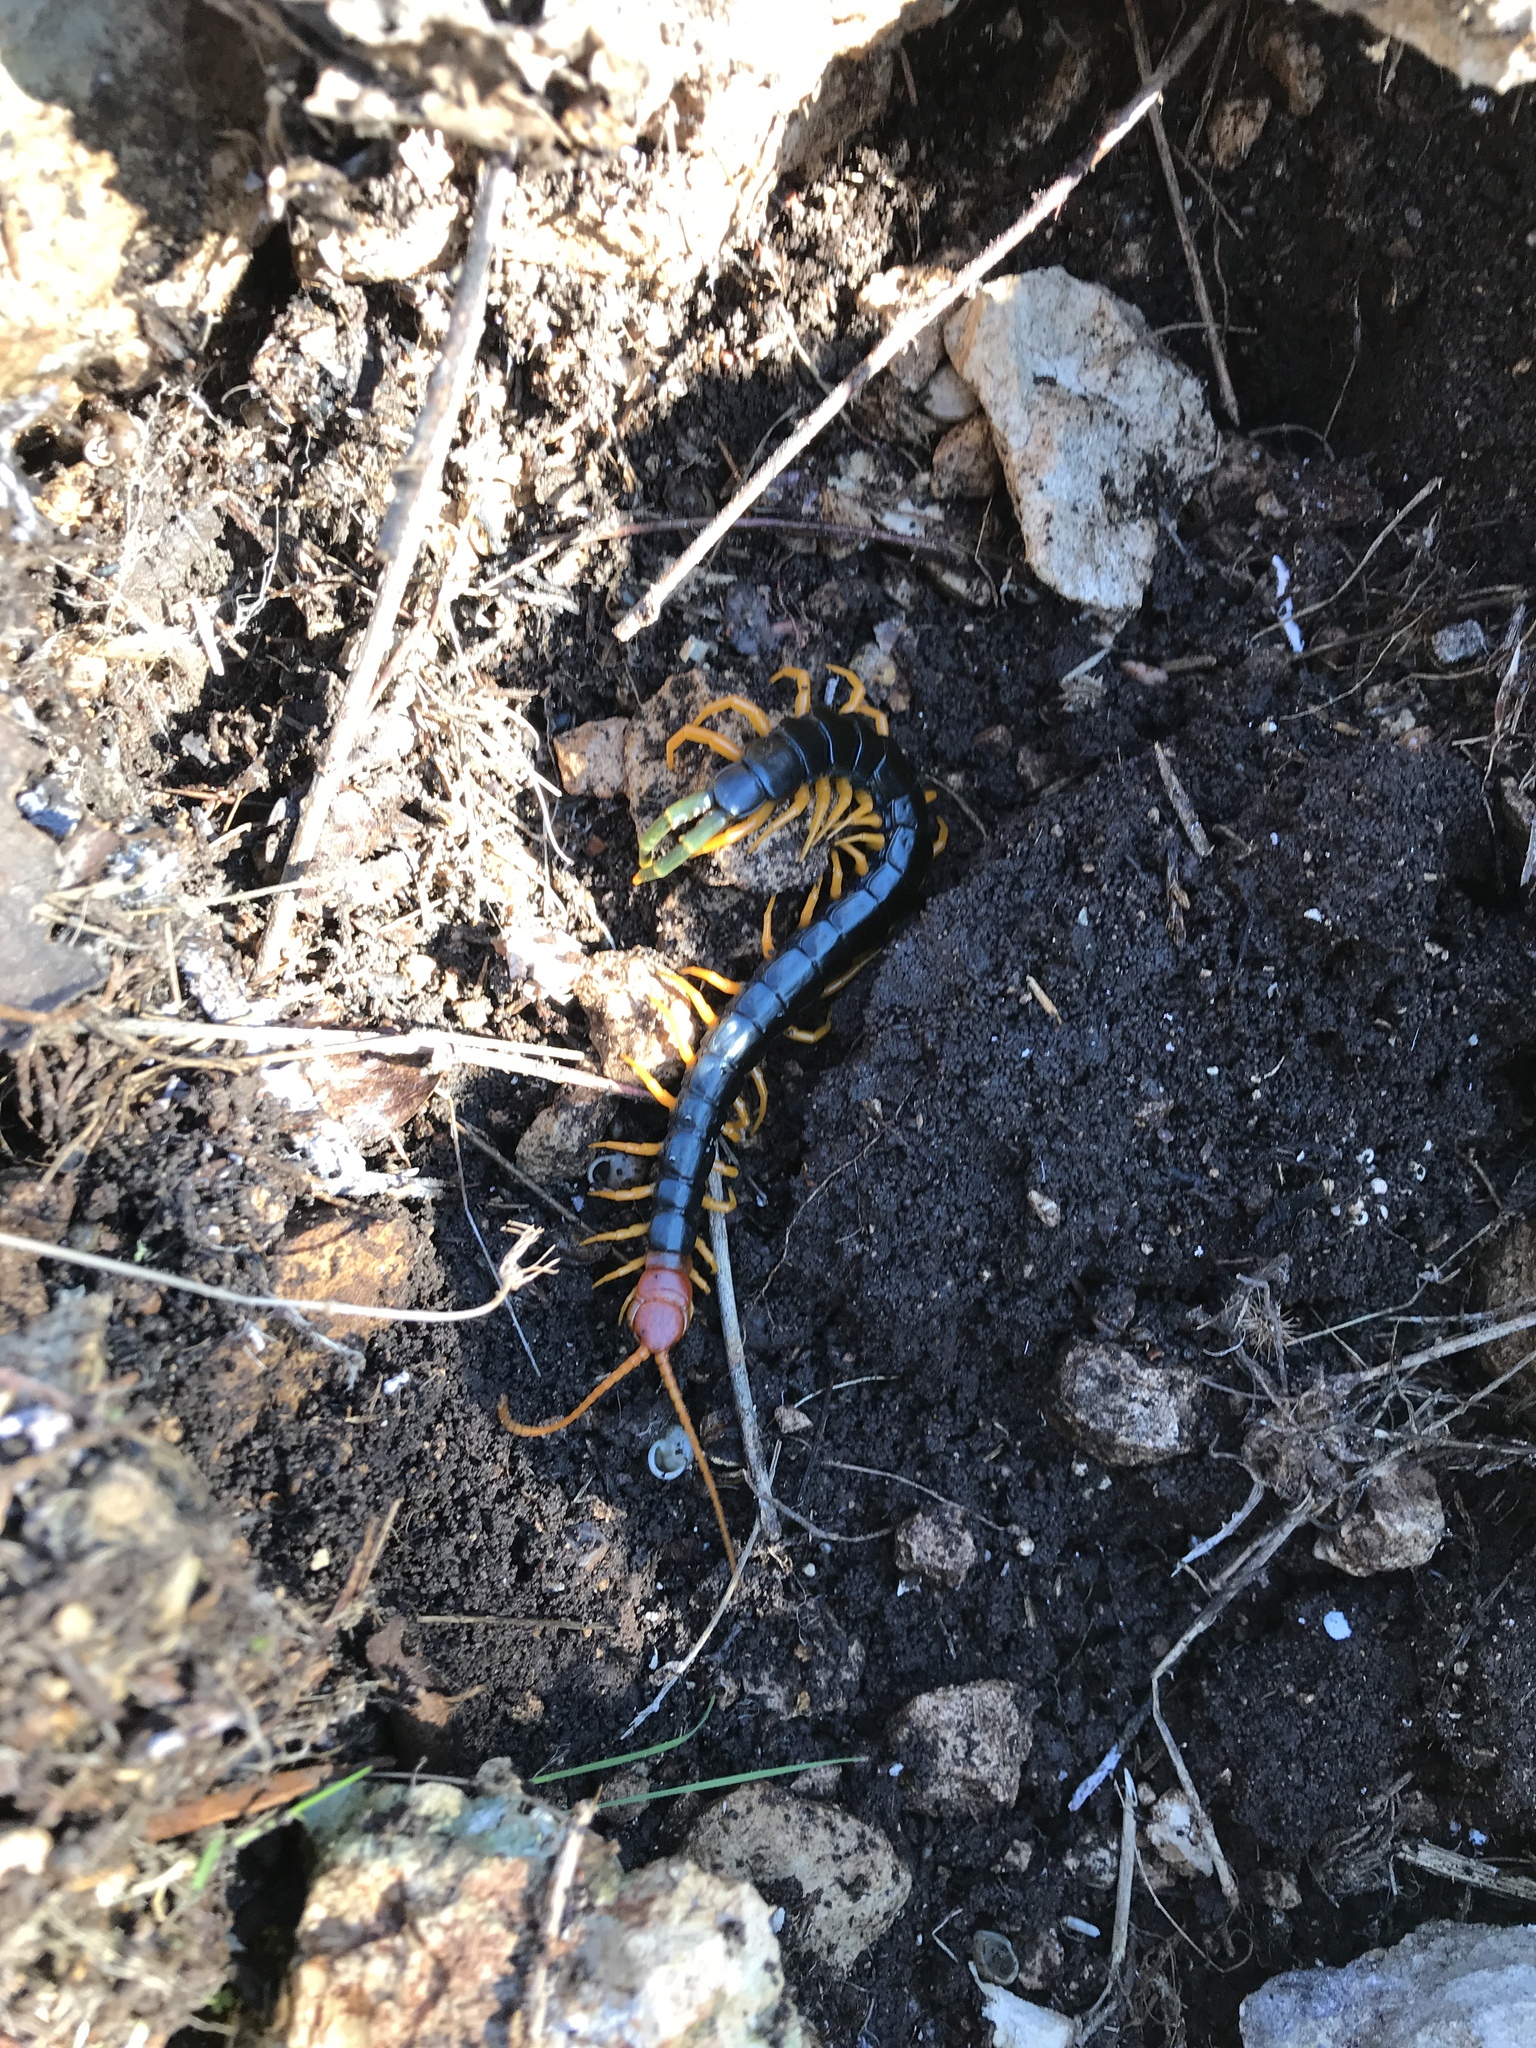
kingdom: Animalia
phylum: Arthropoda
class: Chilopoda
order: Scolopendromorpha
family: Scolopendridae
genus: Scolopendra
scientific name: Scolopendra heros
